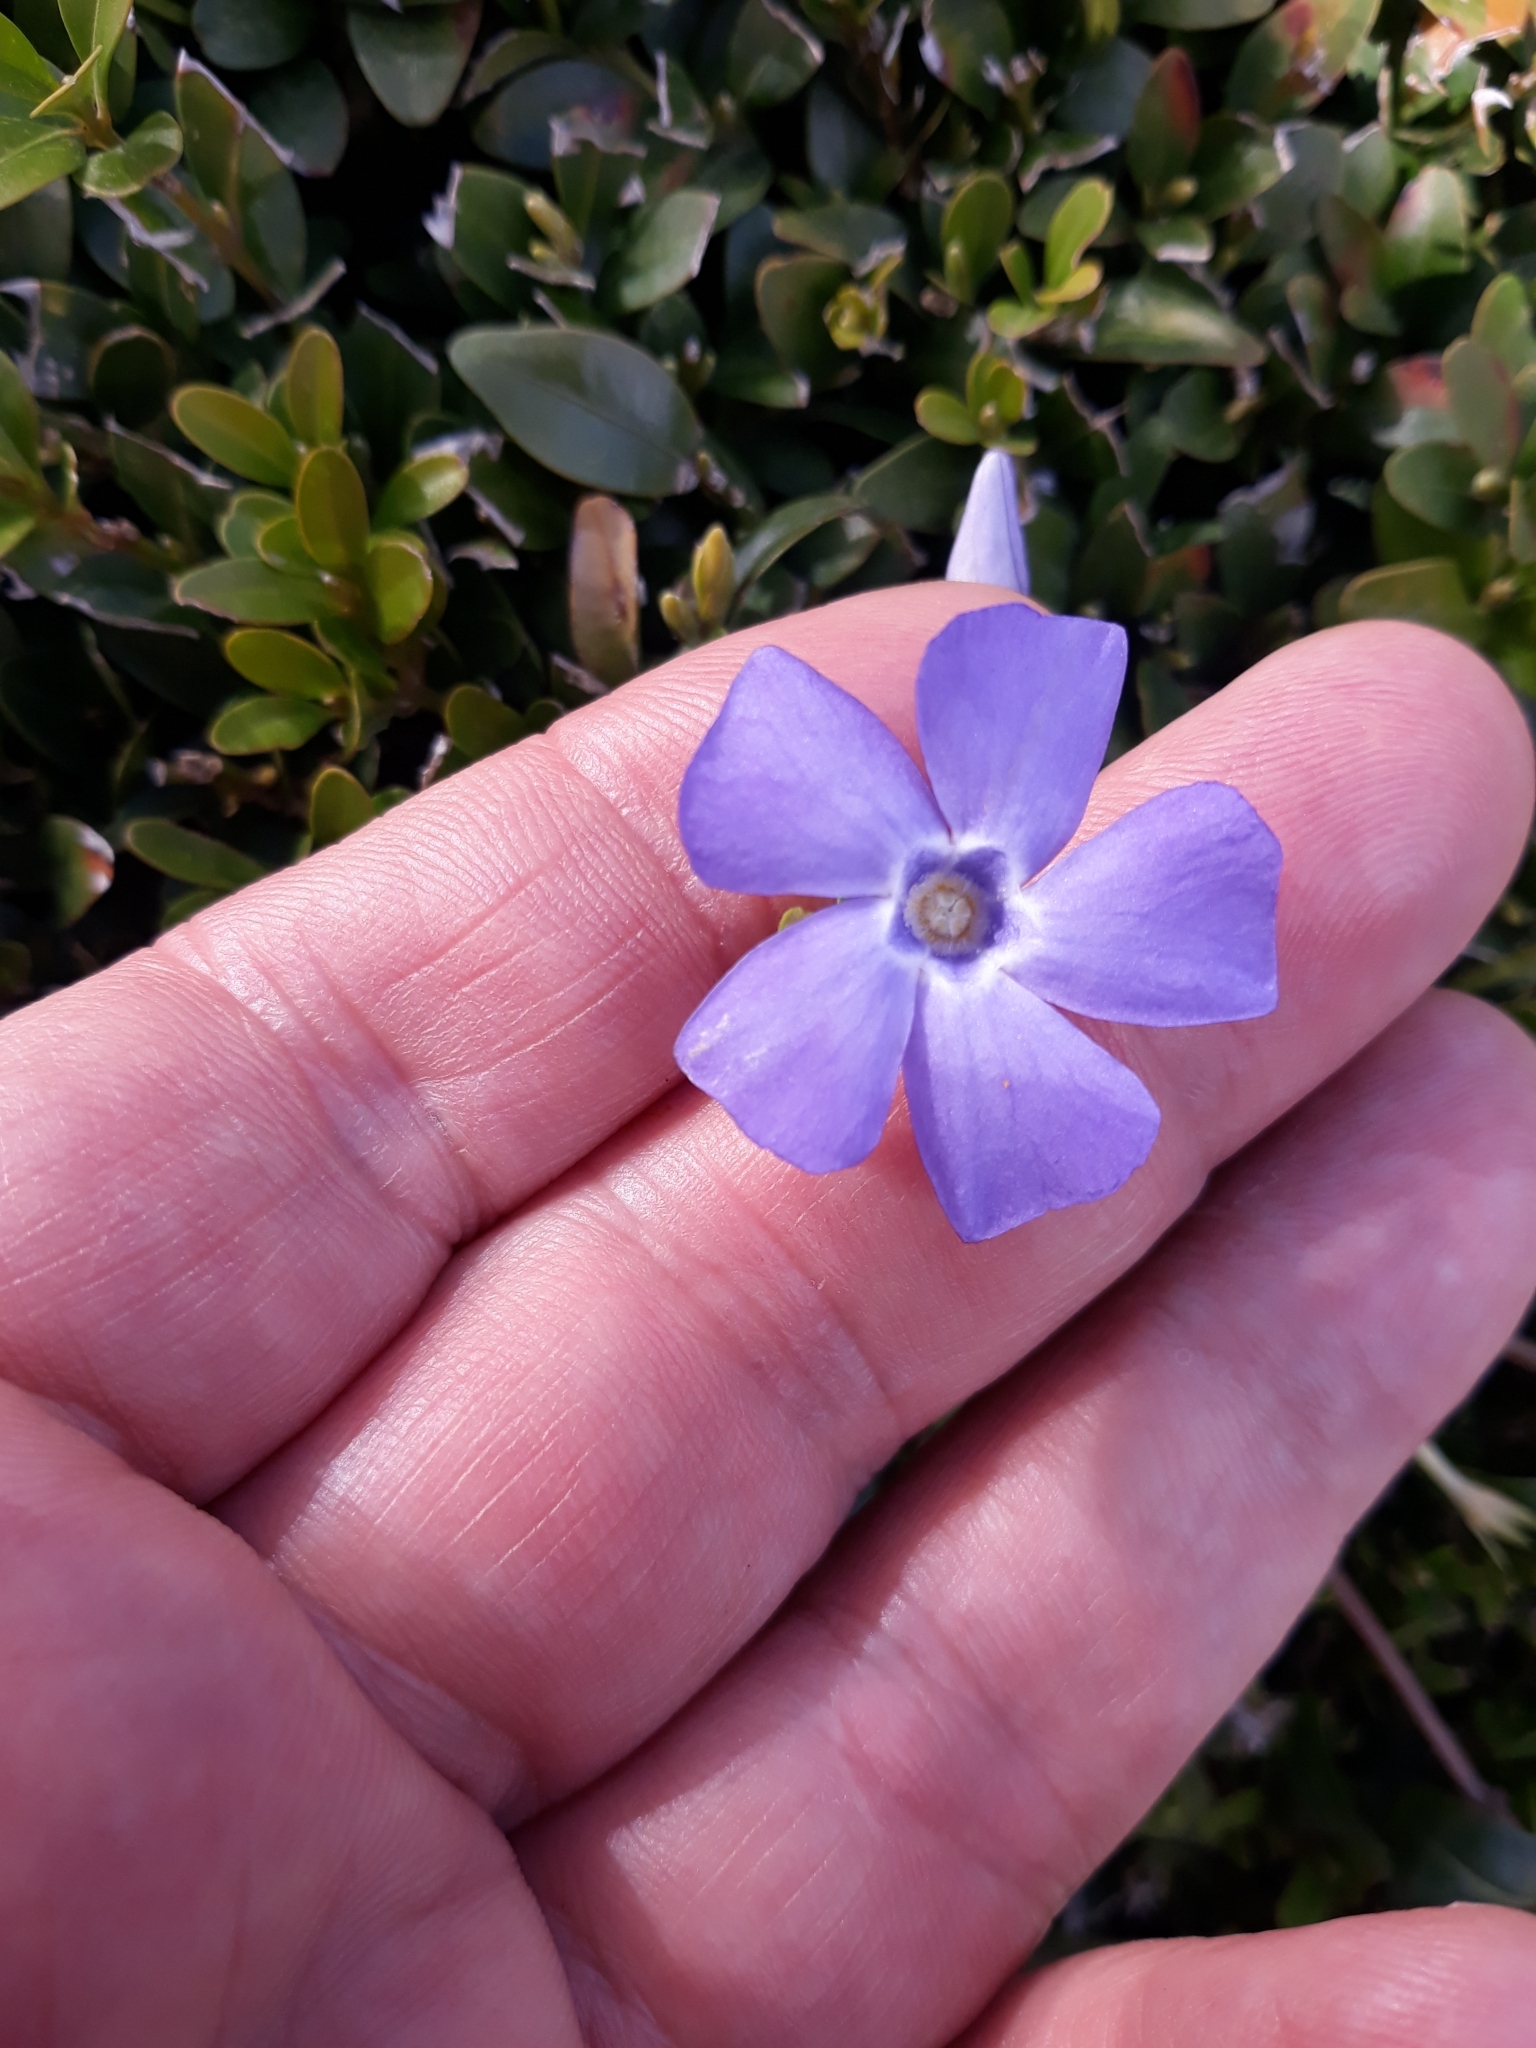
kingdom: Plantae
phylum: Tracheophyta
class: Magnoliopsida
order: Gentianales
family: Apocynaceae
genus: Vinca
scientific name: Vinca minor
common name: Lesser periwinkle
